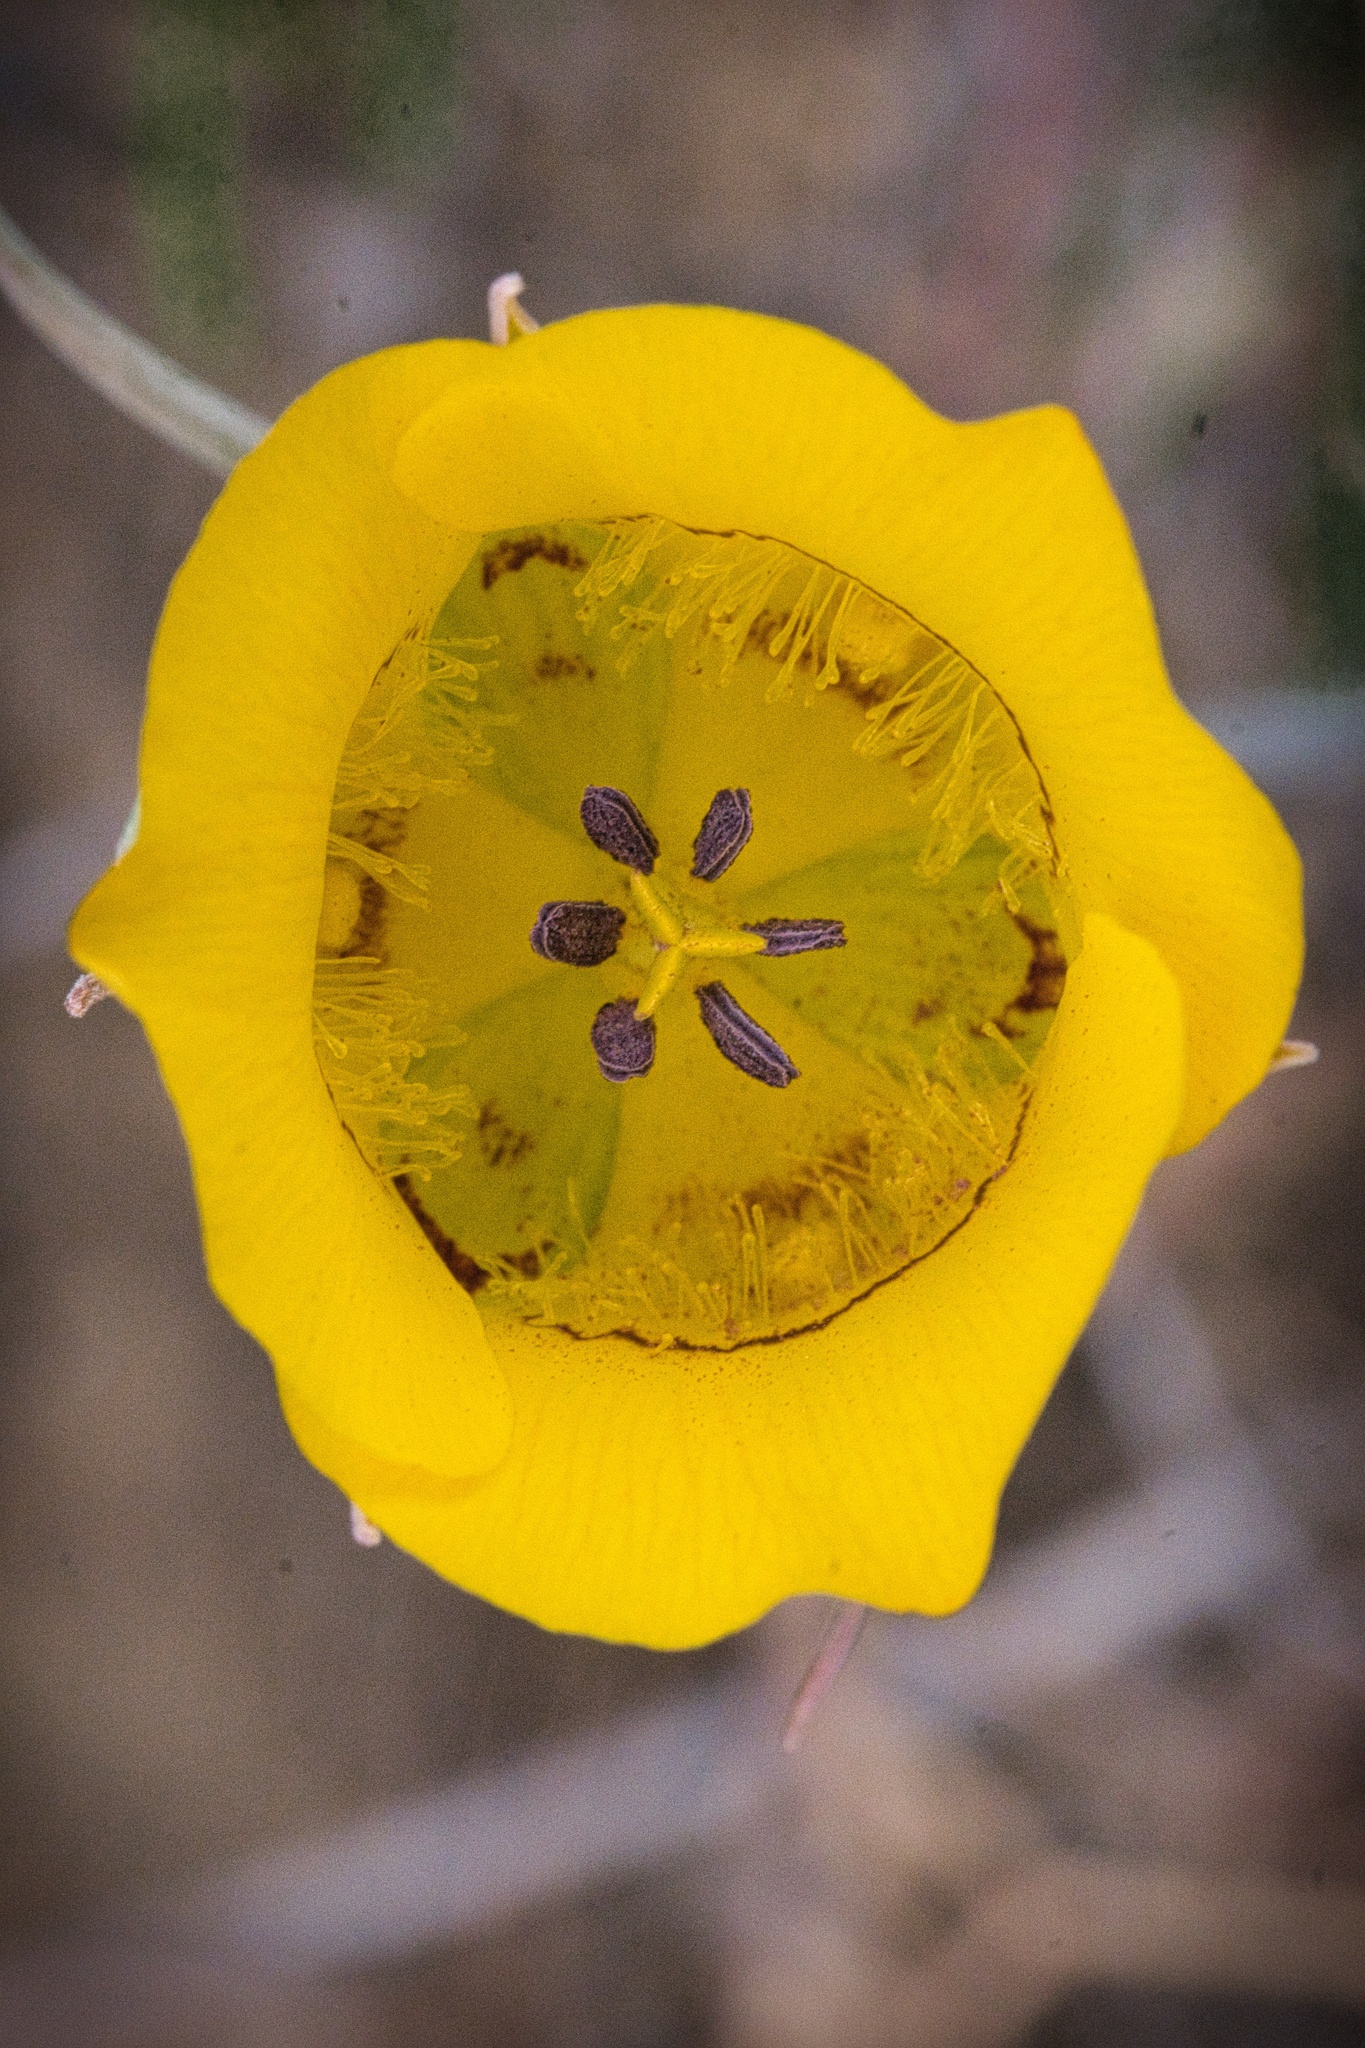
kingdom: Plantae
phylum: Tracheophyta
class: Liliopsida
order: Liliales
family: Liliaceae
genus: Calochortus
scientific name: Calochortus clavatus
